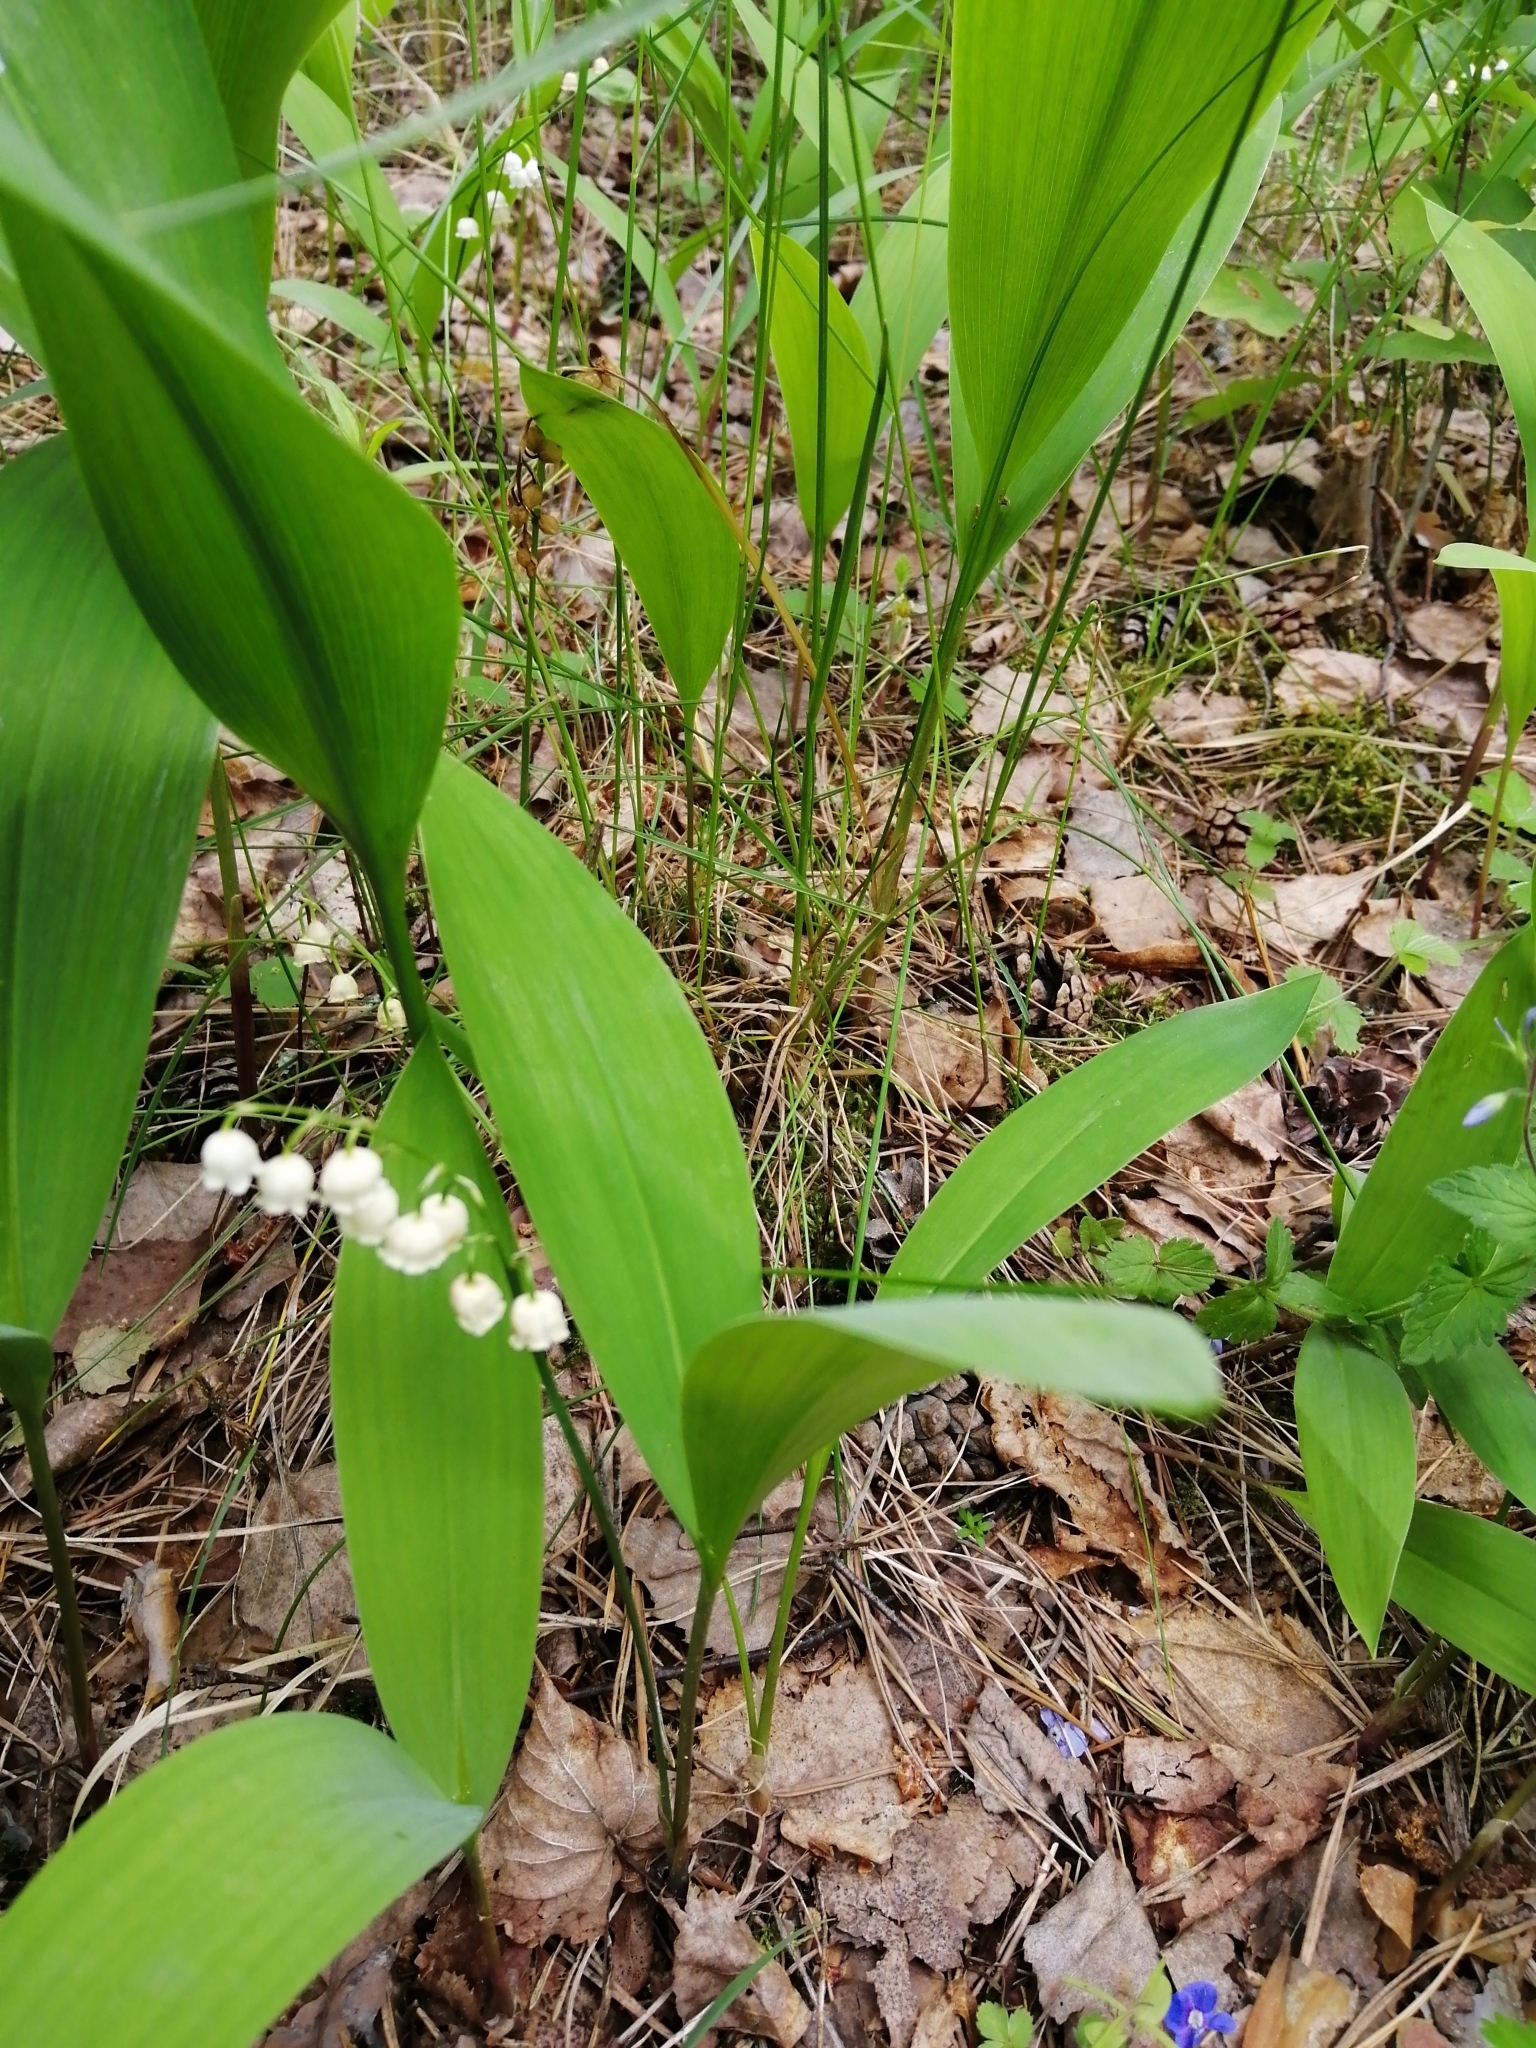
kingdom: Plantae
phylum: Tracheophyta
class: Liliopsida
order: Asparagales
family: Asparagaceae
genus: Convallaria
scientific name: Convallaria majalis
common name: Lily-of-the-valley
